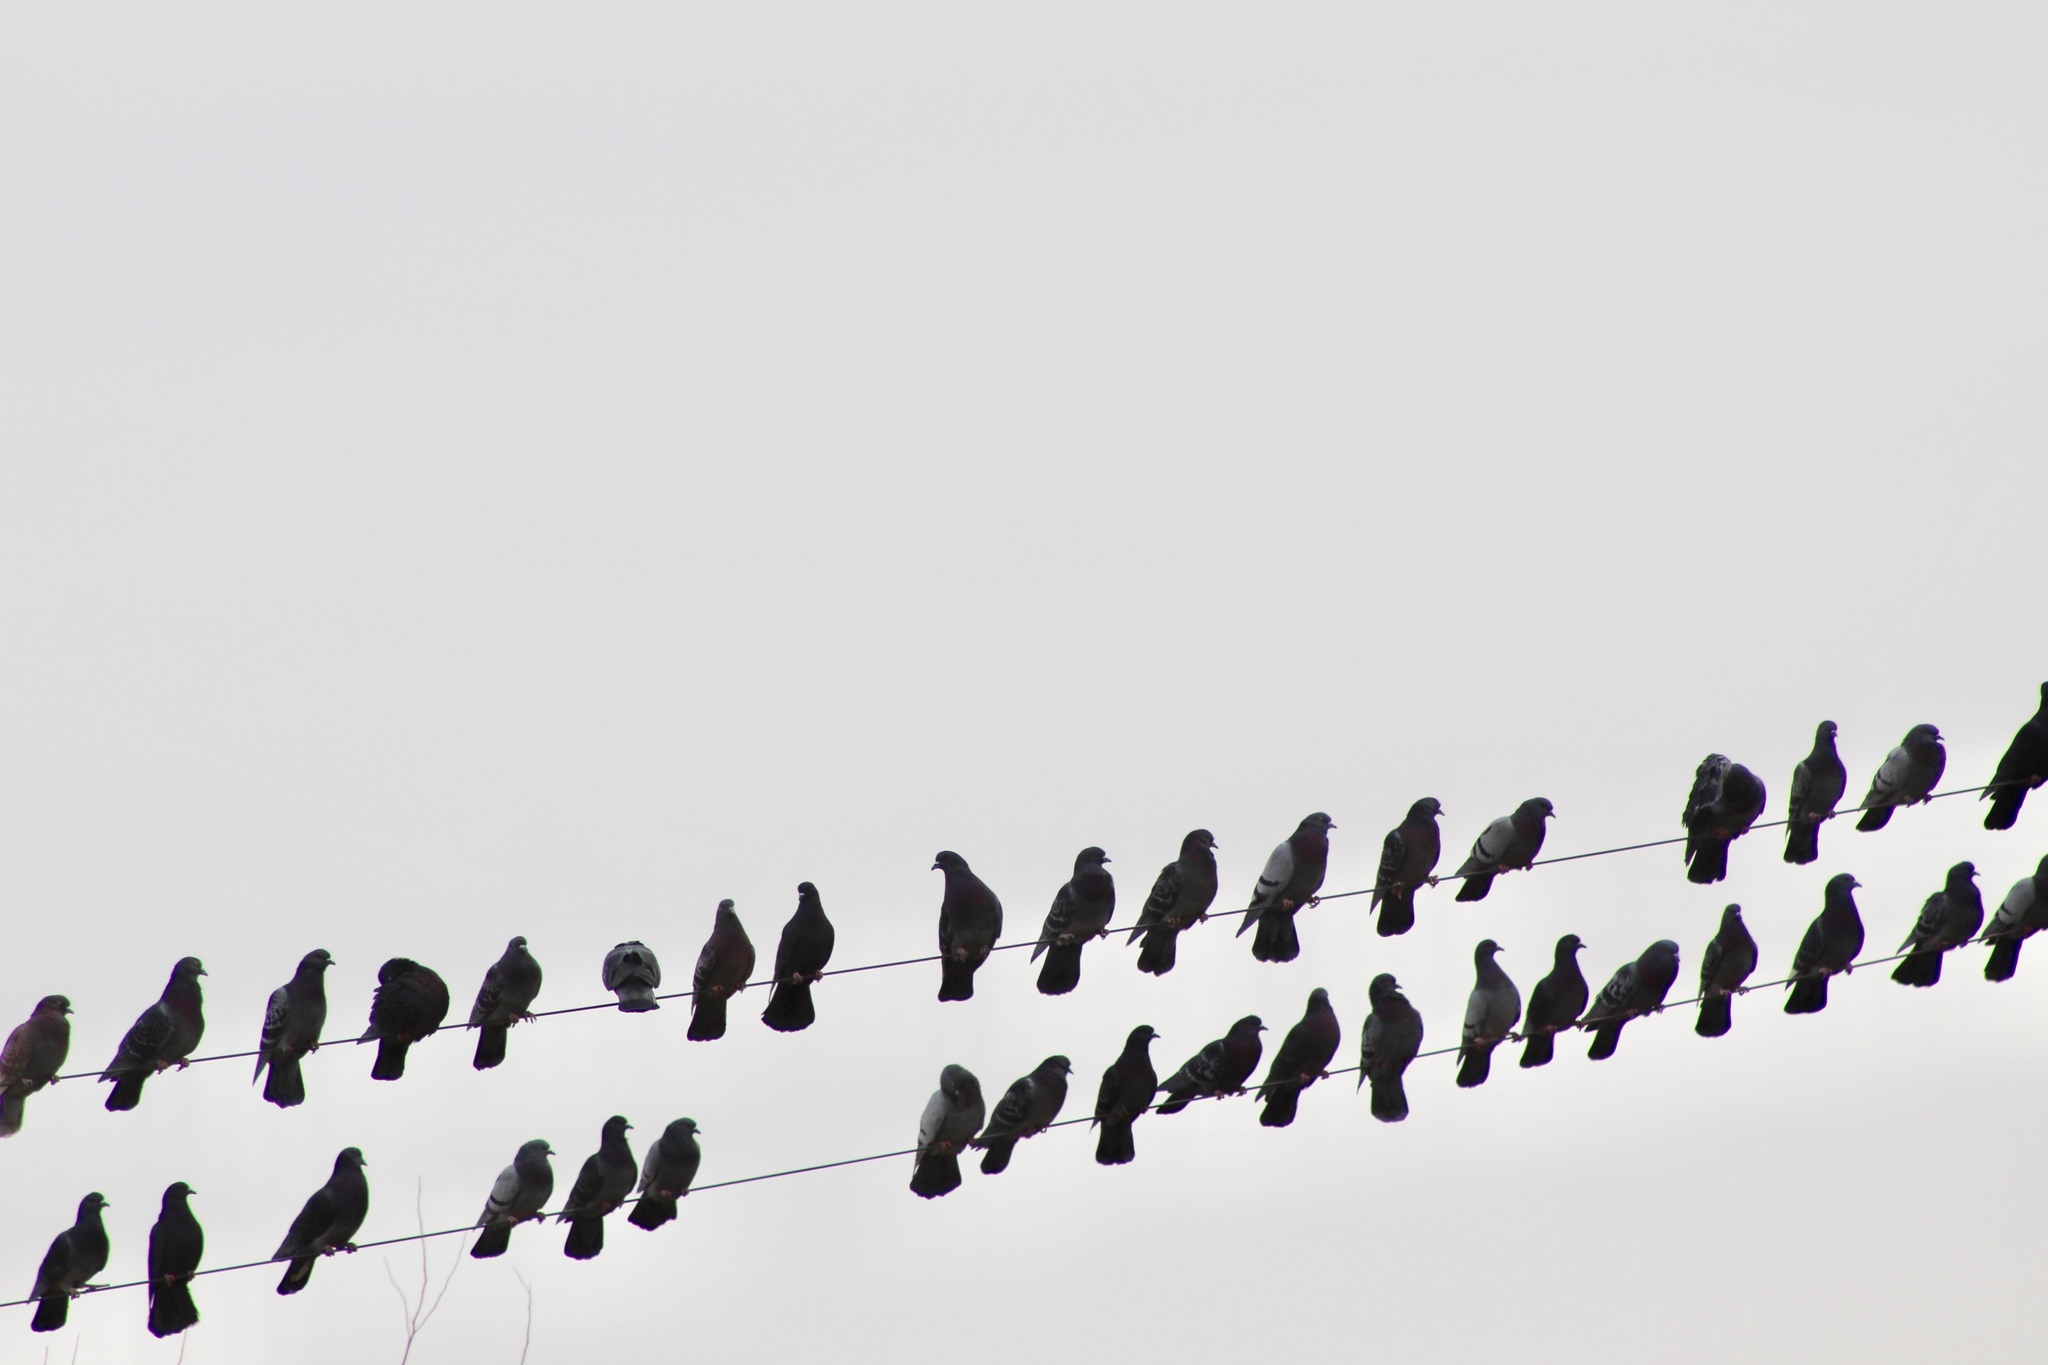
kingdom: Animalia
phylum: Chordata
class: Aves
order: Columbiformes
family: Columbidae
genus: Columba
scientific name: Columba livia
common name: Rock pigeon
